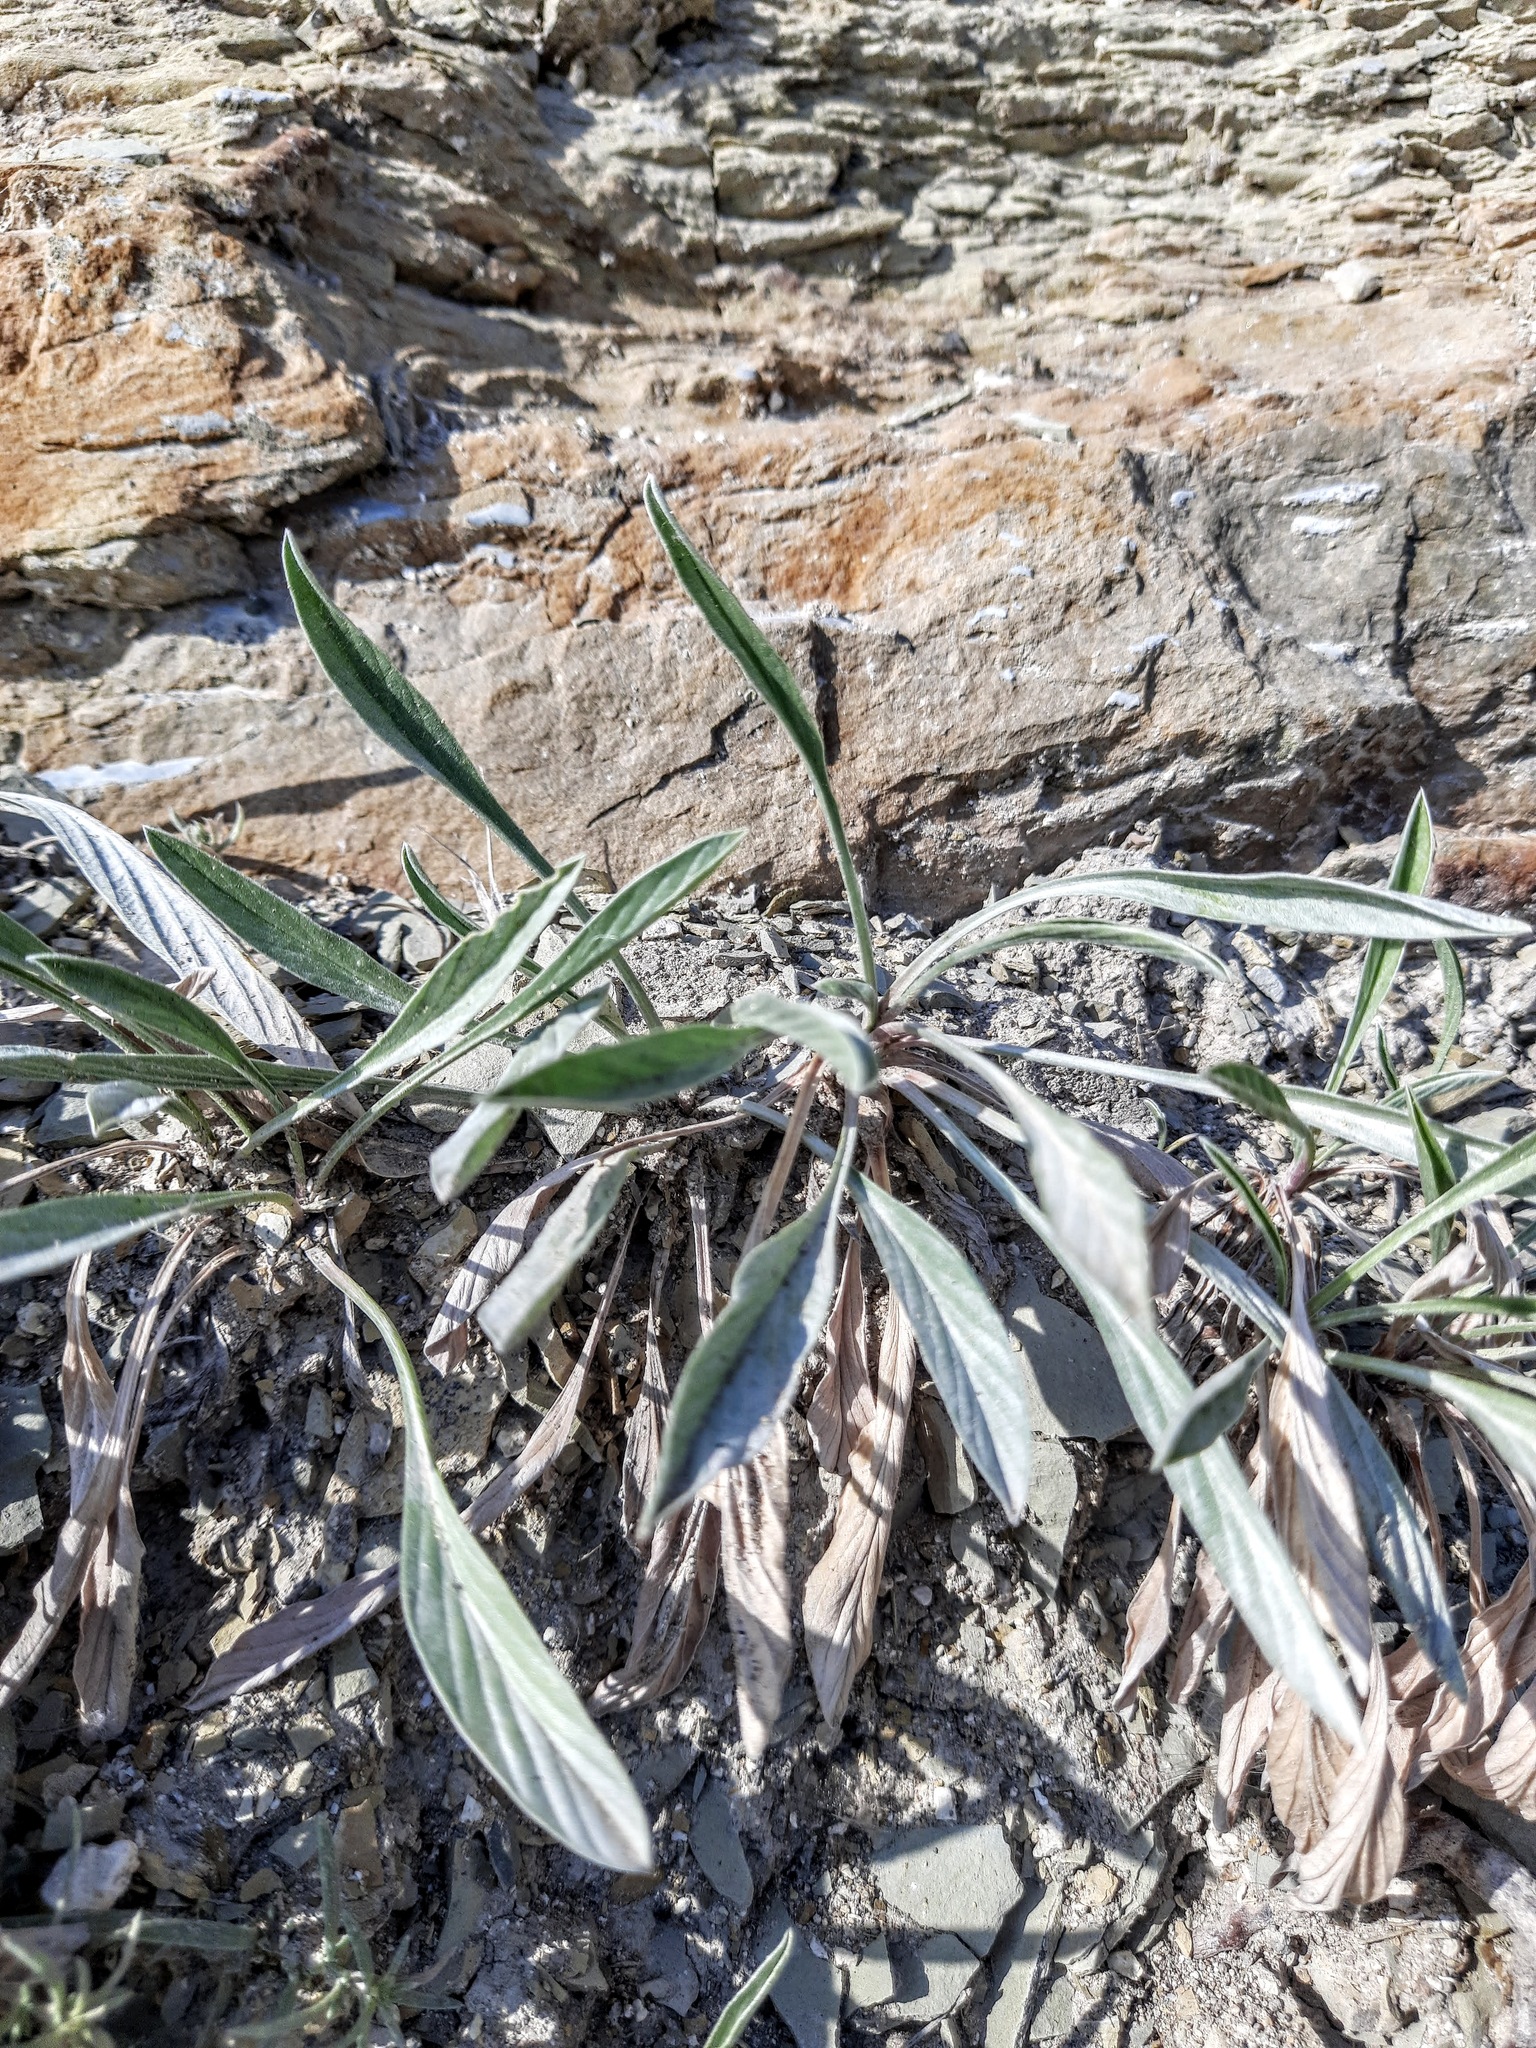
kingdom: Plantae
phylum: Tracheophyta
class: Magnoliopsida
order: Solanales
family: Convolvulaceae
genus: Convolvulus
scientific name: Convolvulus lineatus
